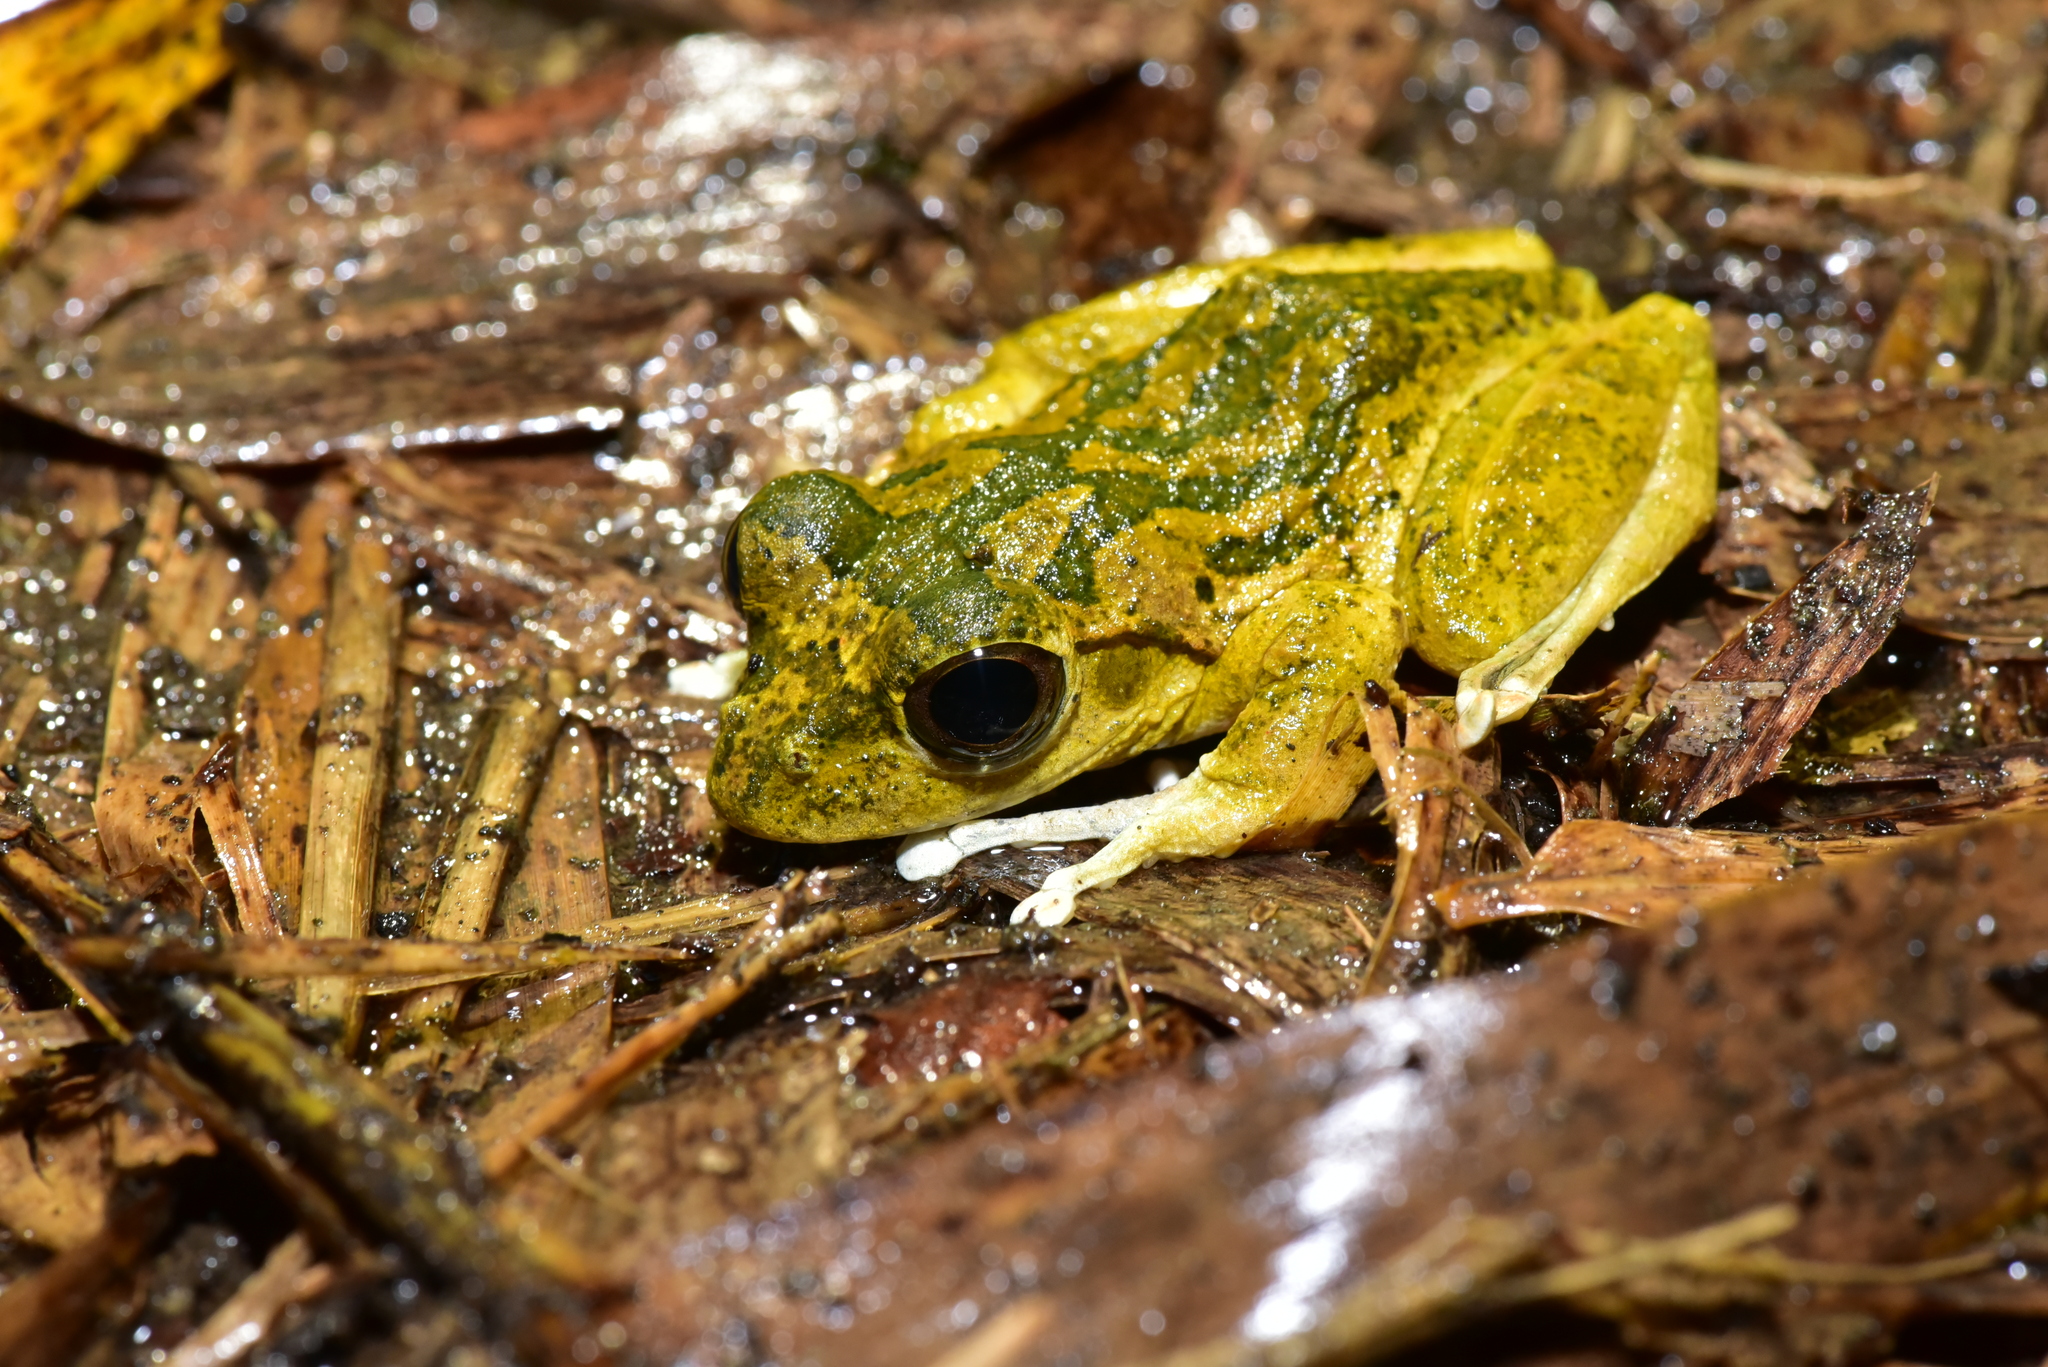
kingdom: Animalia
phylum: Chordata
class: Amphibia
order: Anura
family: Rhacophoridae
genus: Buergeria
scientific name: Buergeria robusta
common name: Brown treefrog
